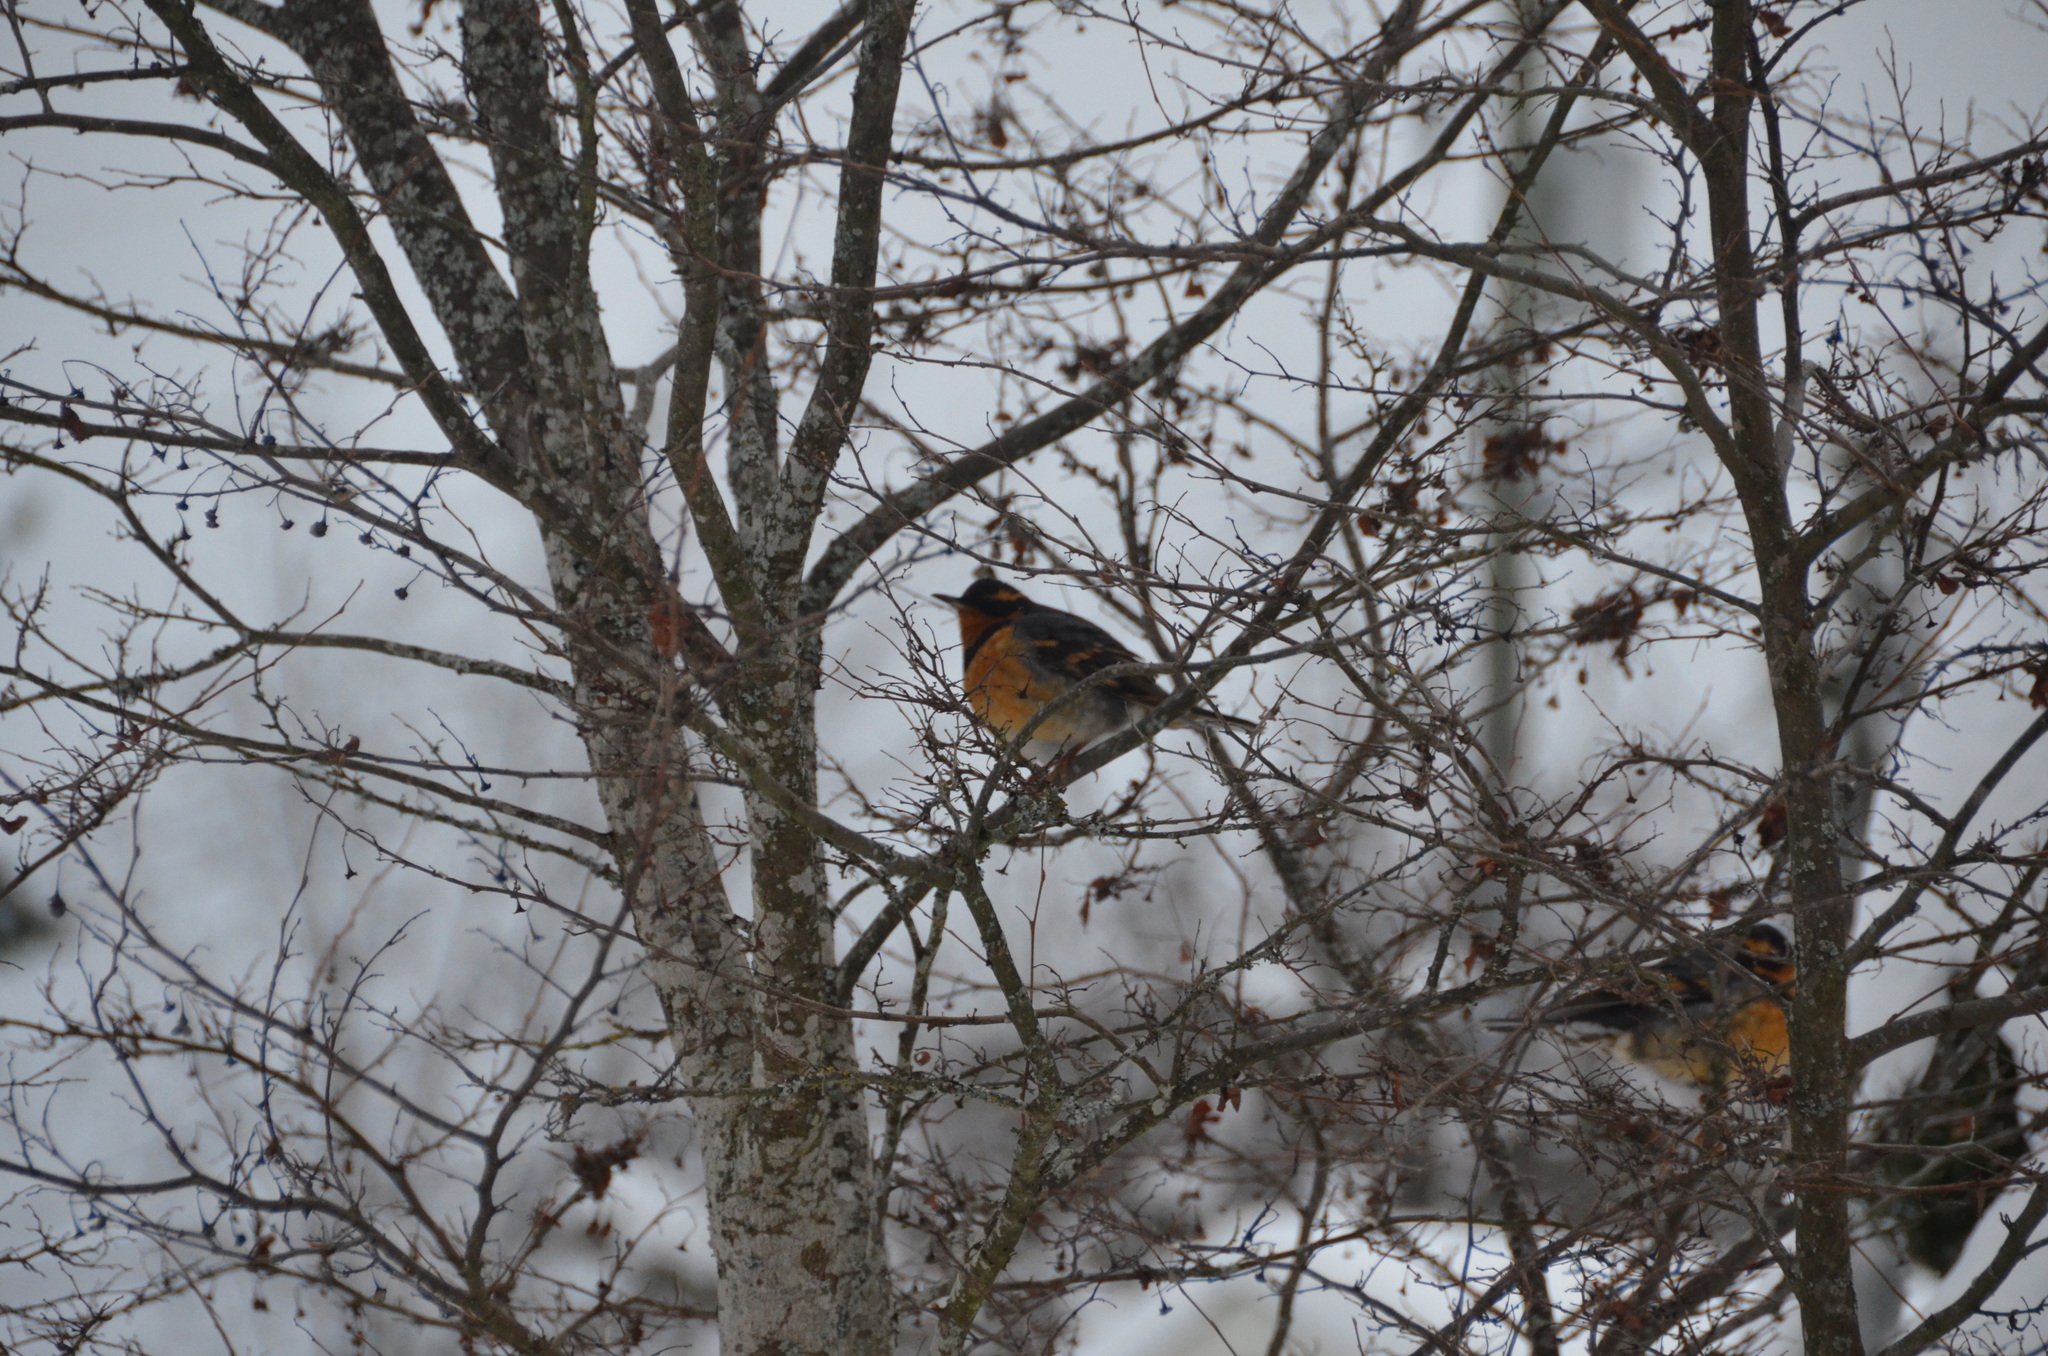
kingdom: Animalia
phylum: Chordata
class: Aves
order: Passeriformes
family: Turdidae
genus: Ixoreus
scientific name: Ixoreus naevius
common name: Varied thrush
